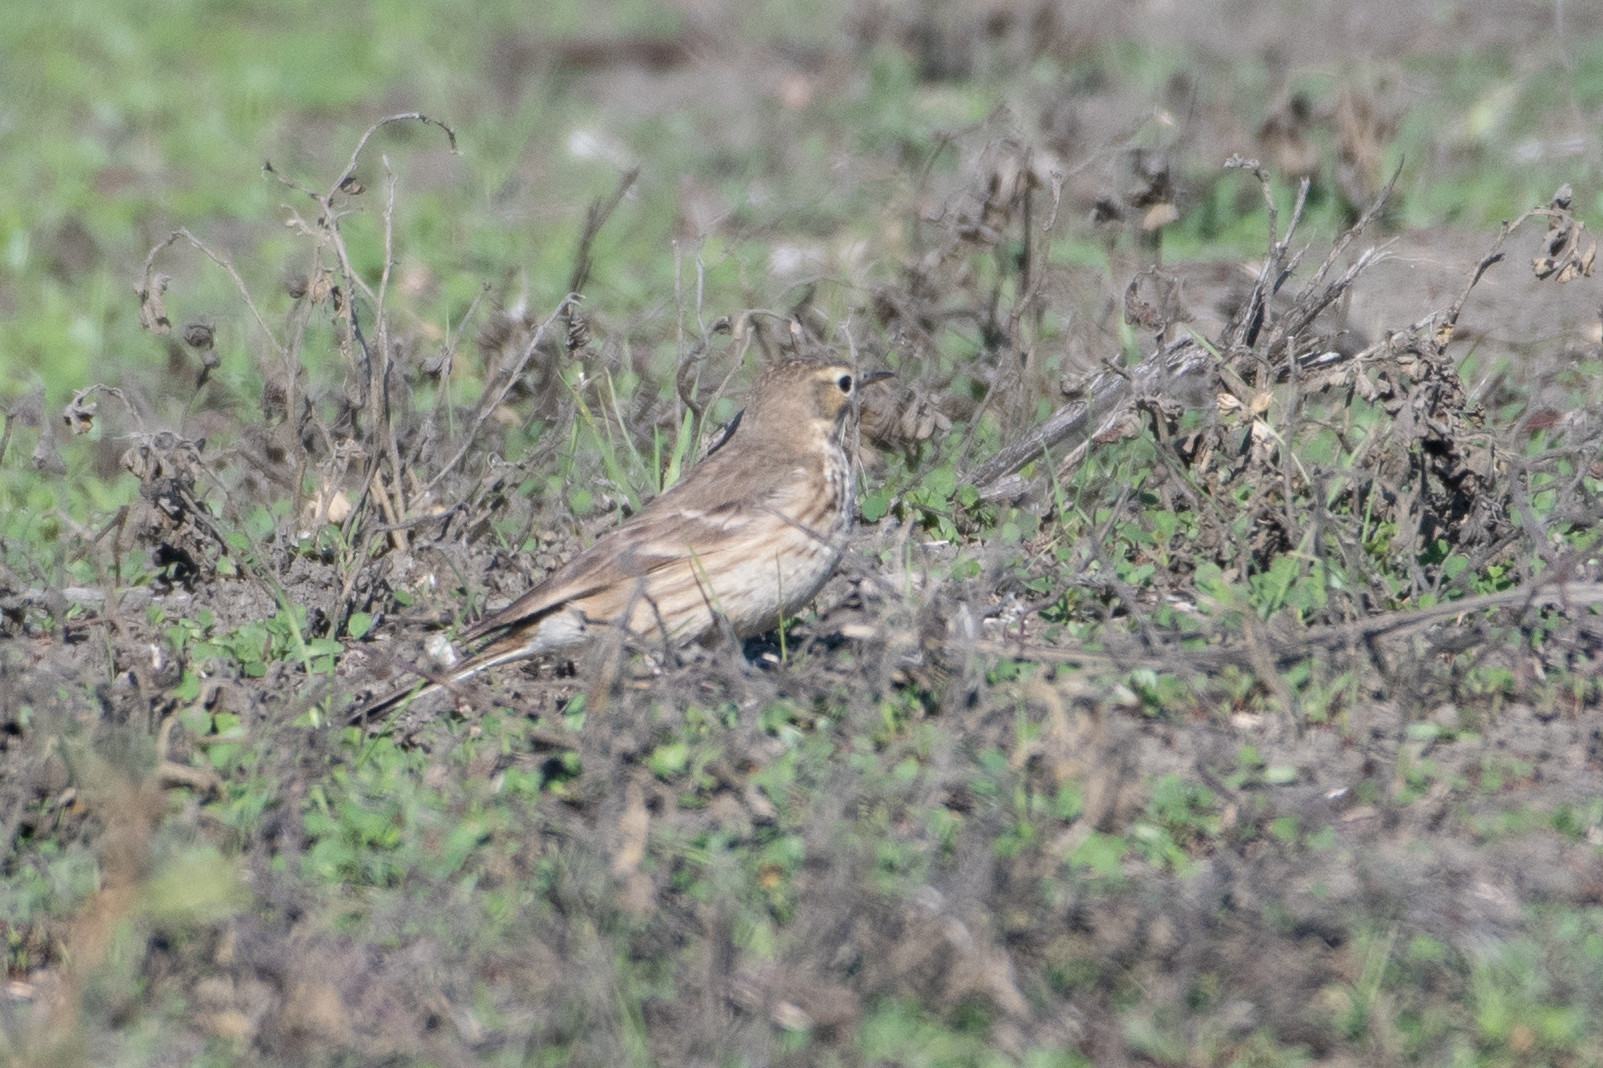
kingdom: Animalia
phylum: Chordata
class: Aves
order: Passeriformes
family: Motacillidae
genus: Anthus
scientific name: Anthus rubescens
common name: Buff-bellied pipit
